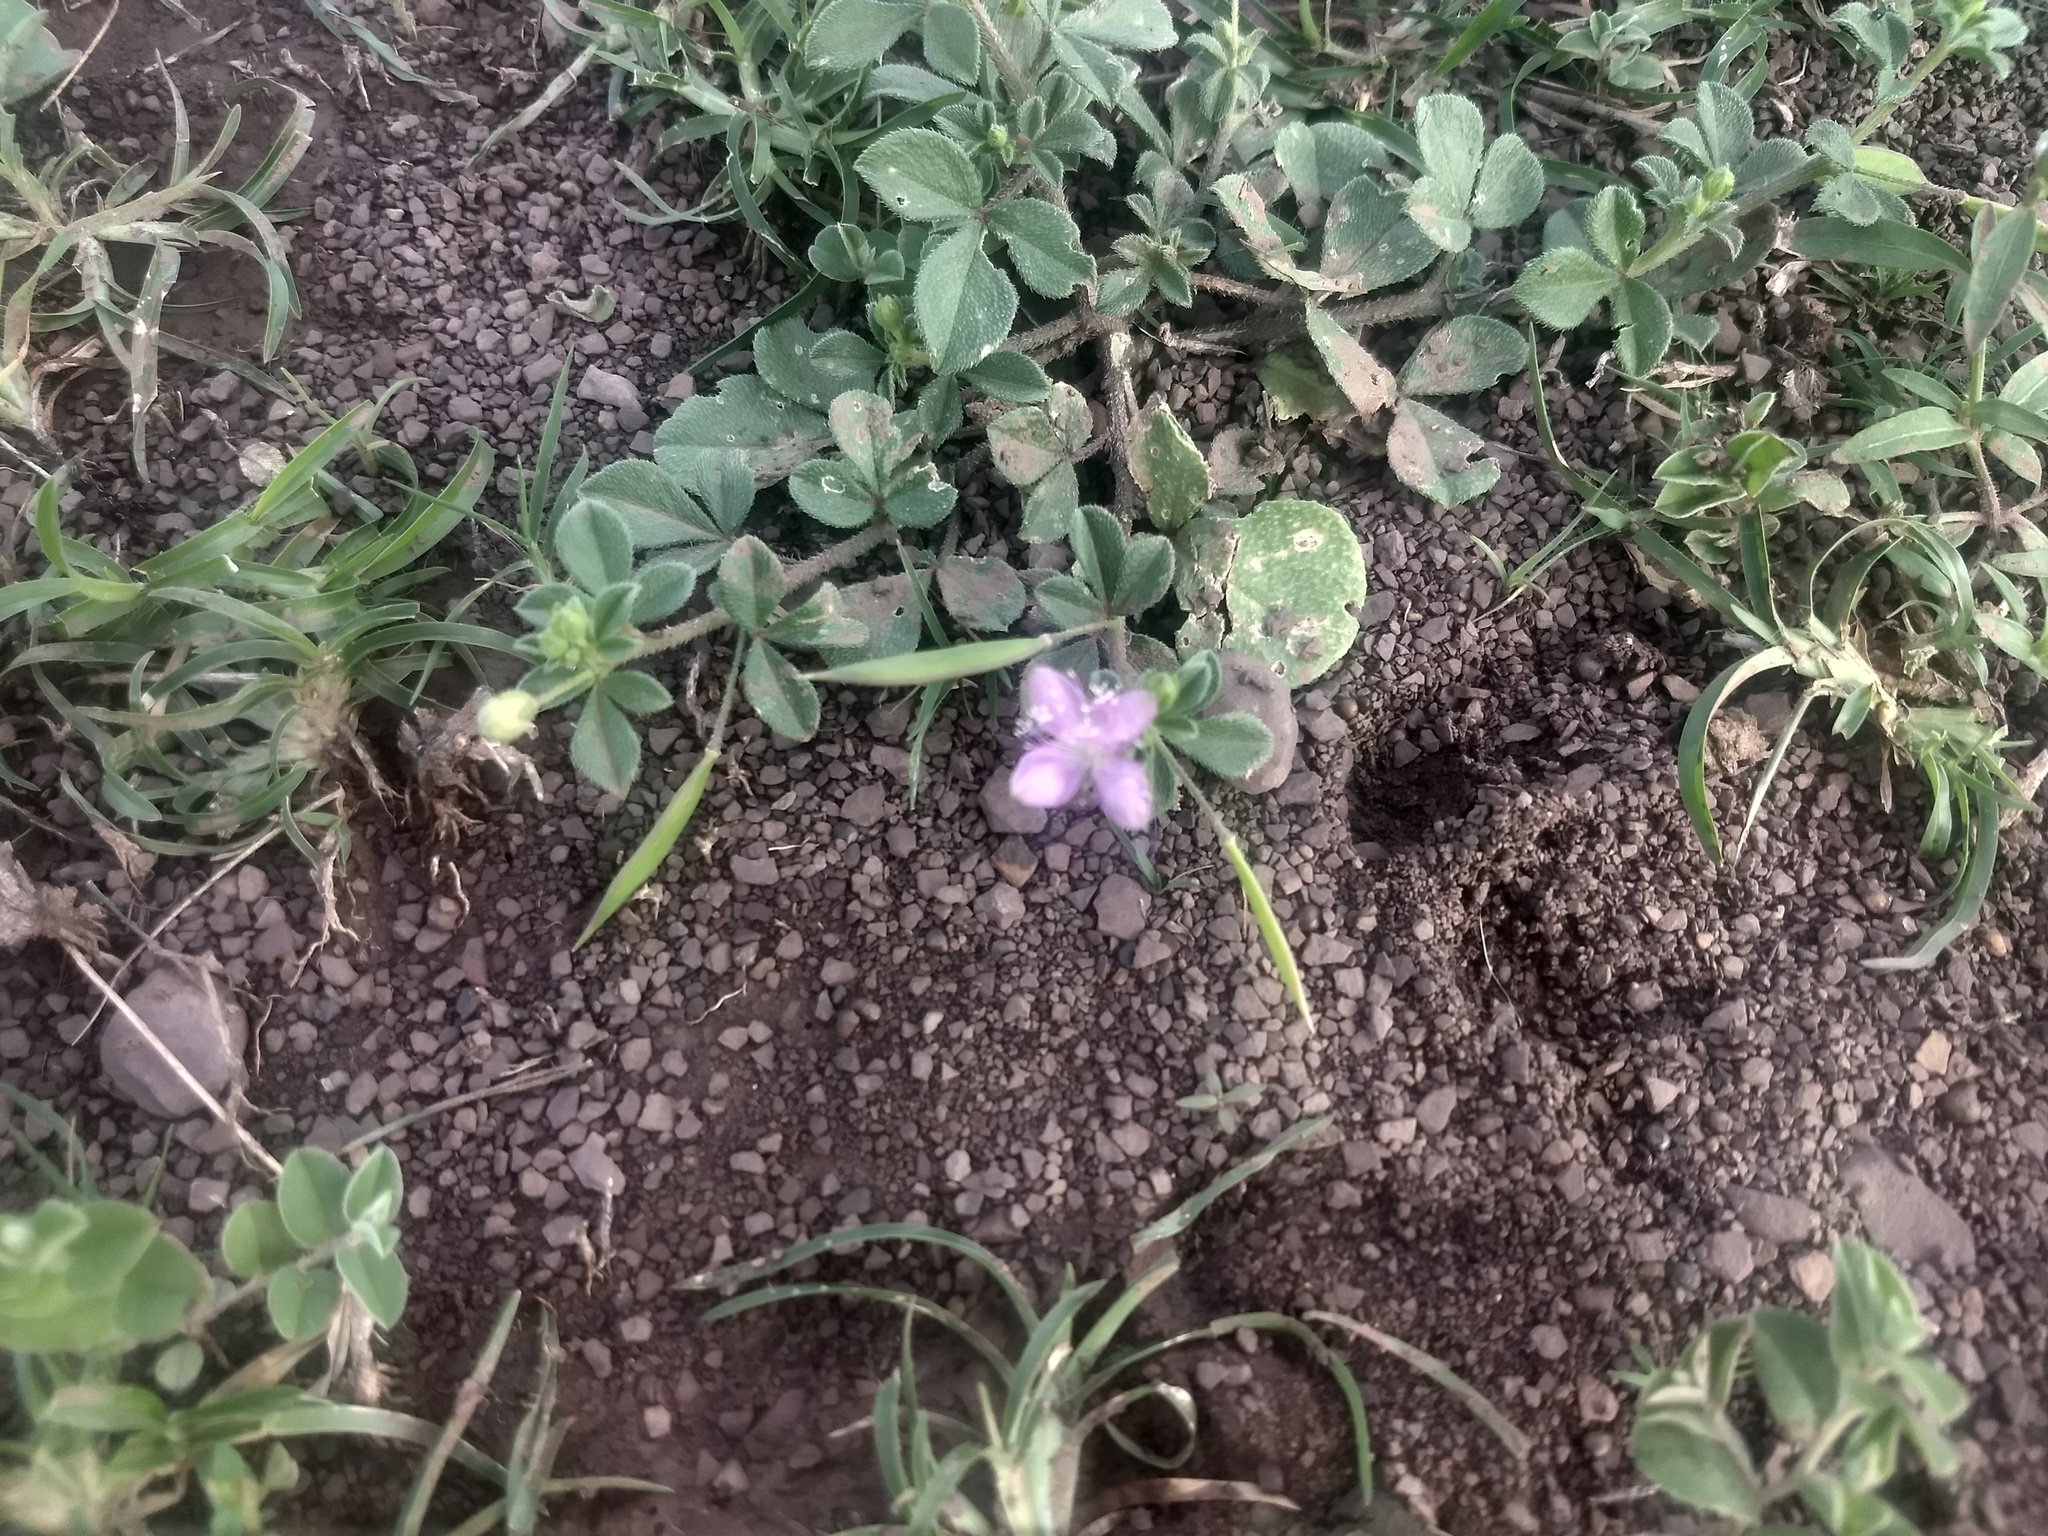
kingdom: Plantae
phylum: Tracheophyta
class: Magnoliopsida
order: Brassicales
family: Cleomaceae
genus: Corynandra
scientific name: Corynandra felina
